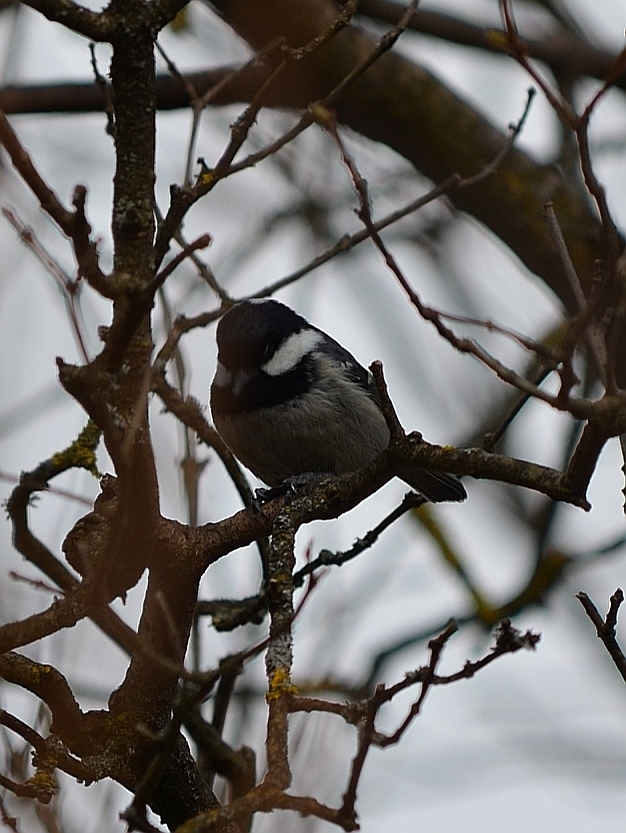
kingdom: Animalia
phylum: Chordata
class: Aves
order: Passeriformes
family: Paridae
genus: Periparus
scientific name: Periparus ater
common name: Coal tit
